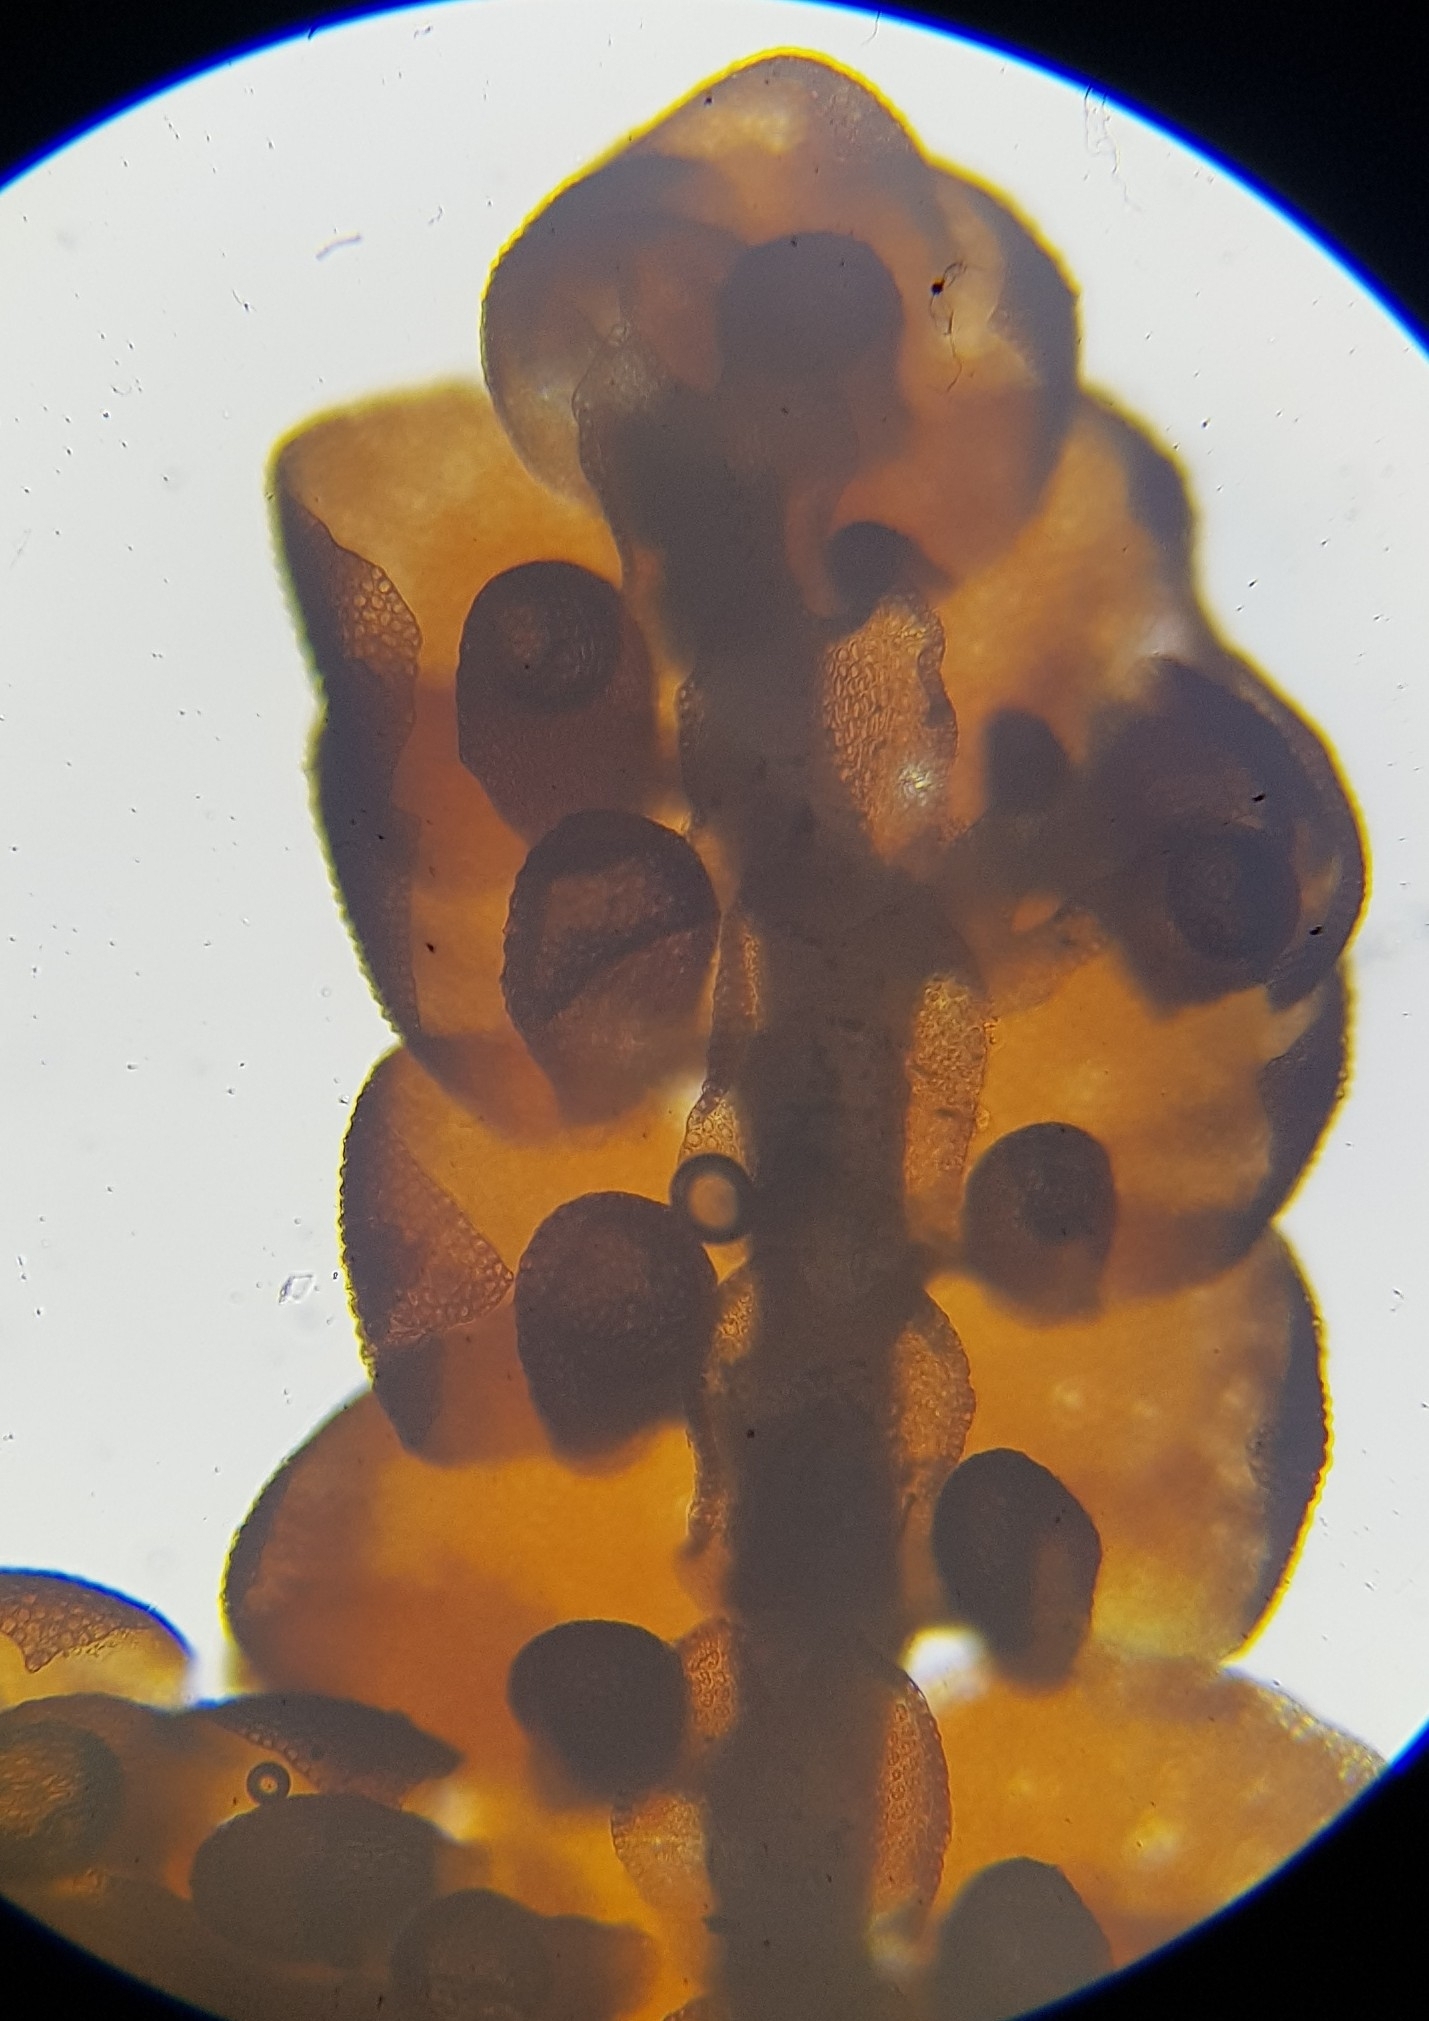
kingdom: Plantae
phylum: Marchantiophyta
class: Jungermanniopsida
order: Porellales
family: Frullaniaceae
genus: Frullania
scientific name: Frullania tamarisci
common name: Tamarisk scalewort
